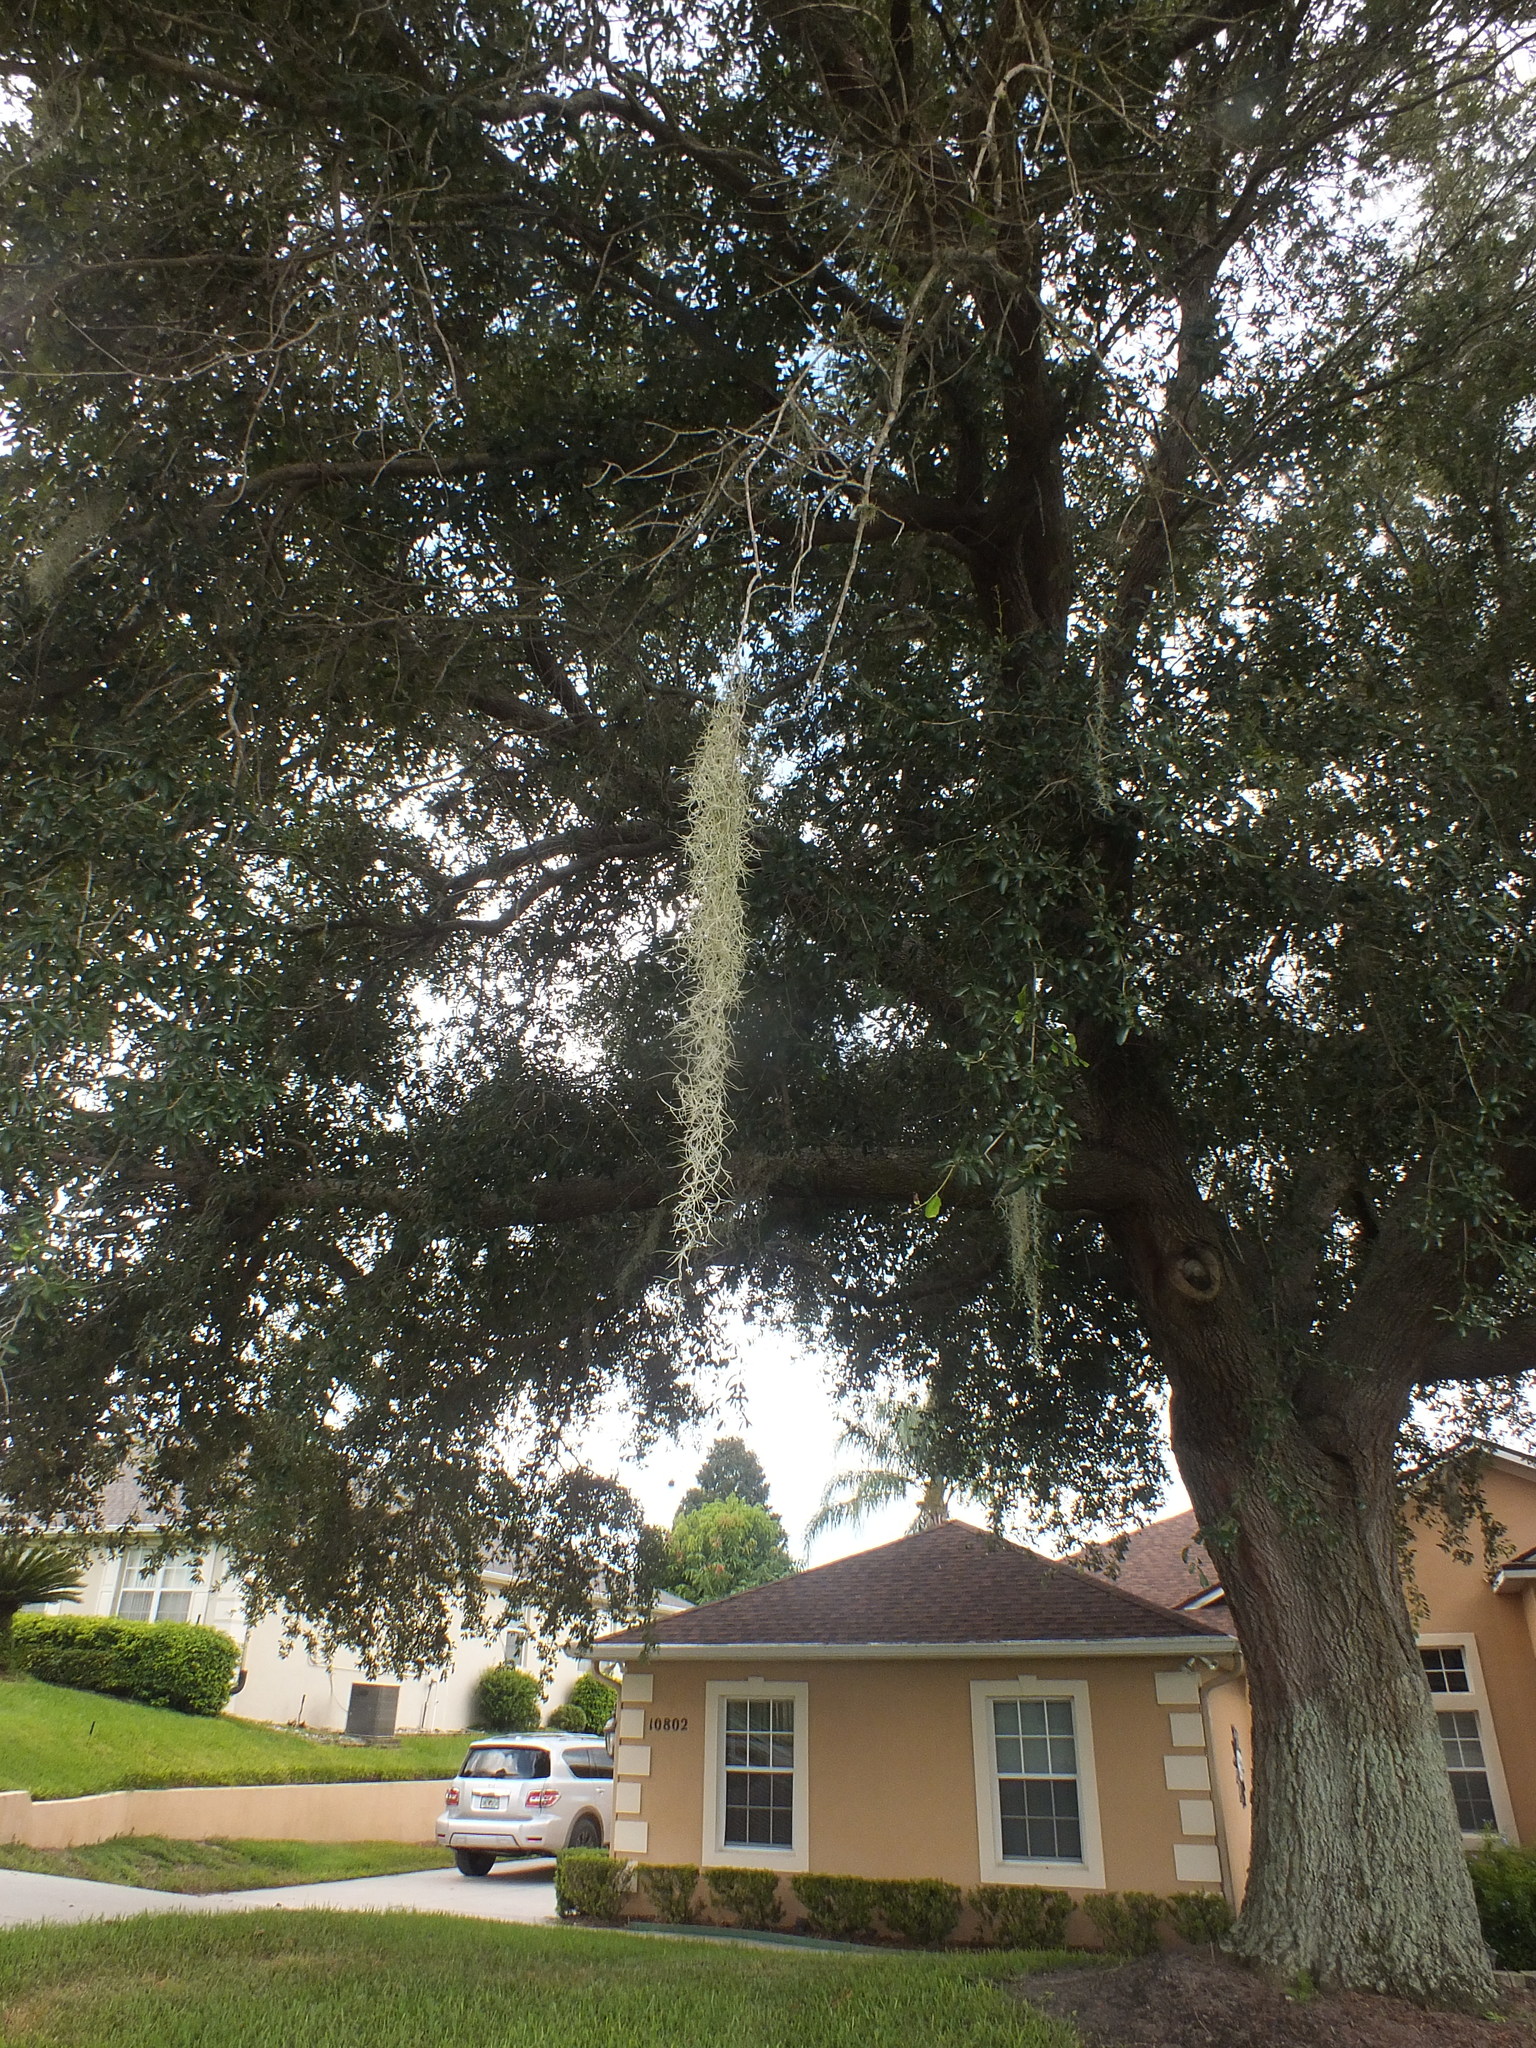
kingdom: Plantae
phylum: Tracheophyta
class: Liliopsida
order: Poales
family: Bromeliaceae
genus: Tillandsia
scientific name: Tillandsia usneoides
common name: Spanish moss
